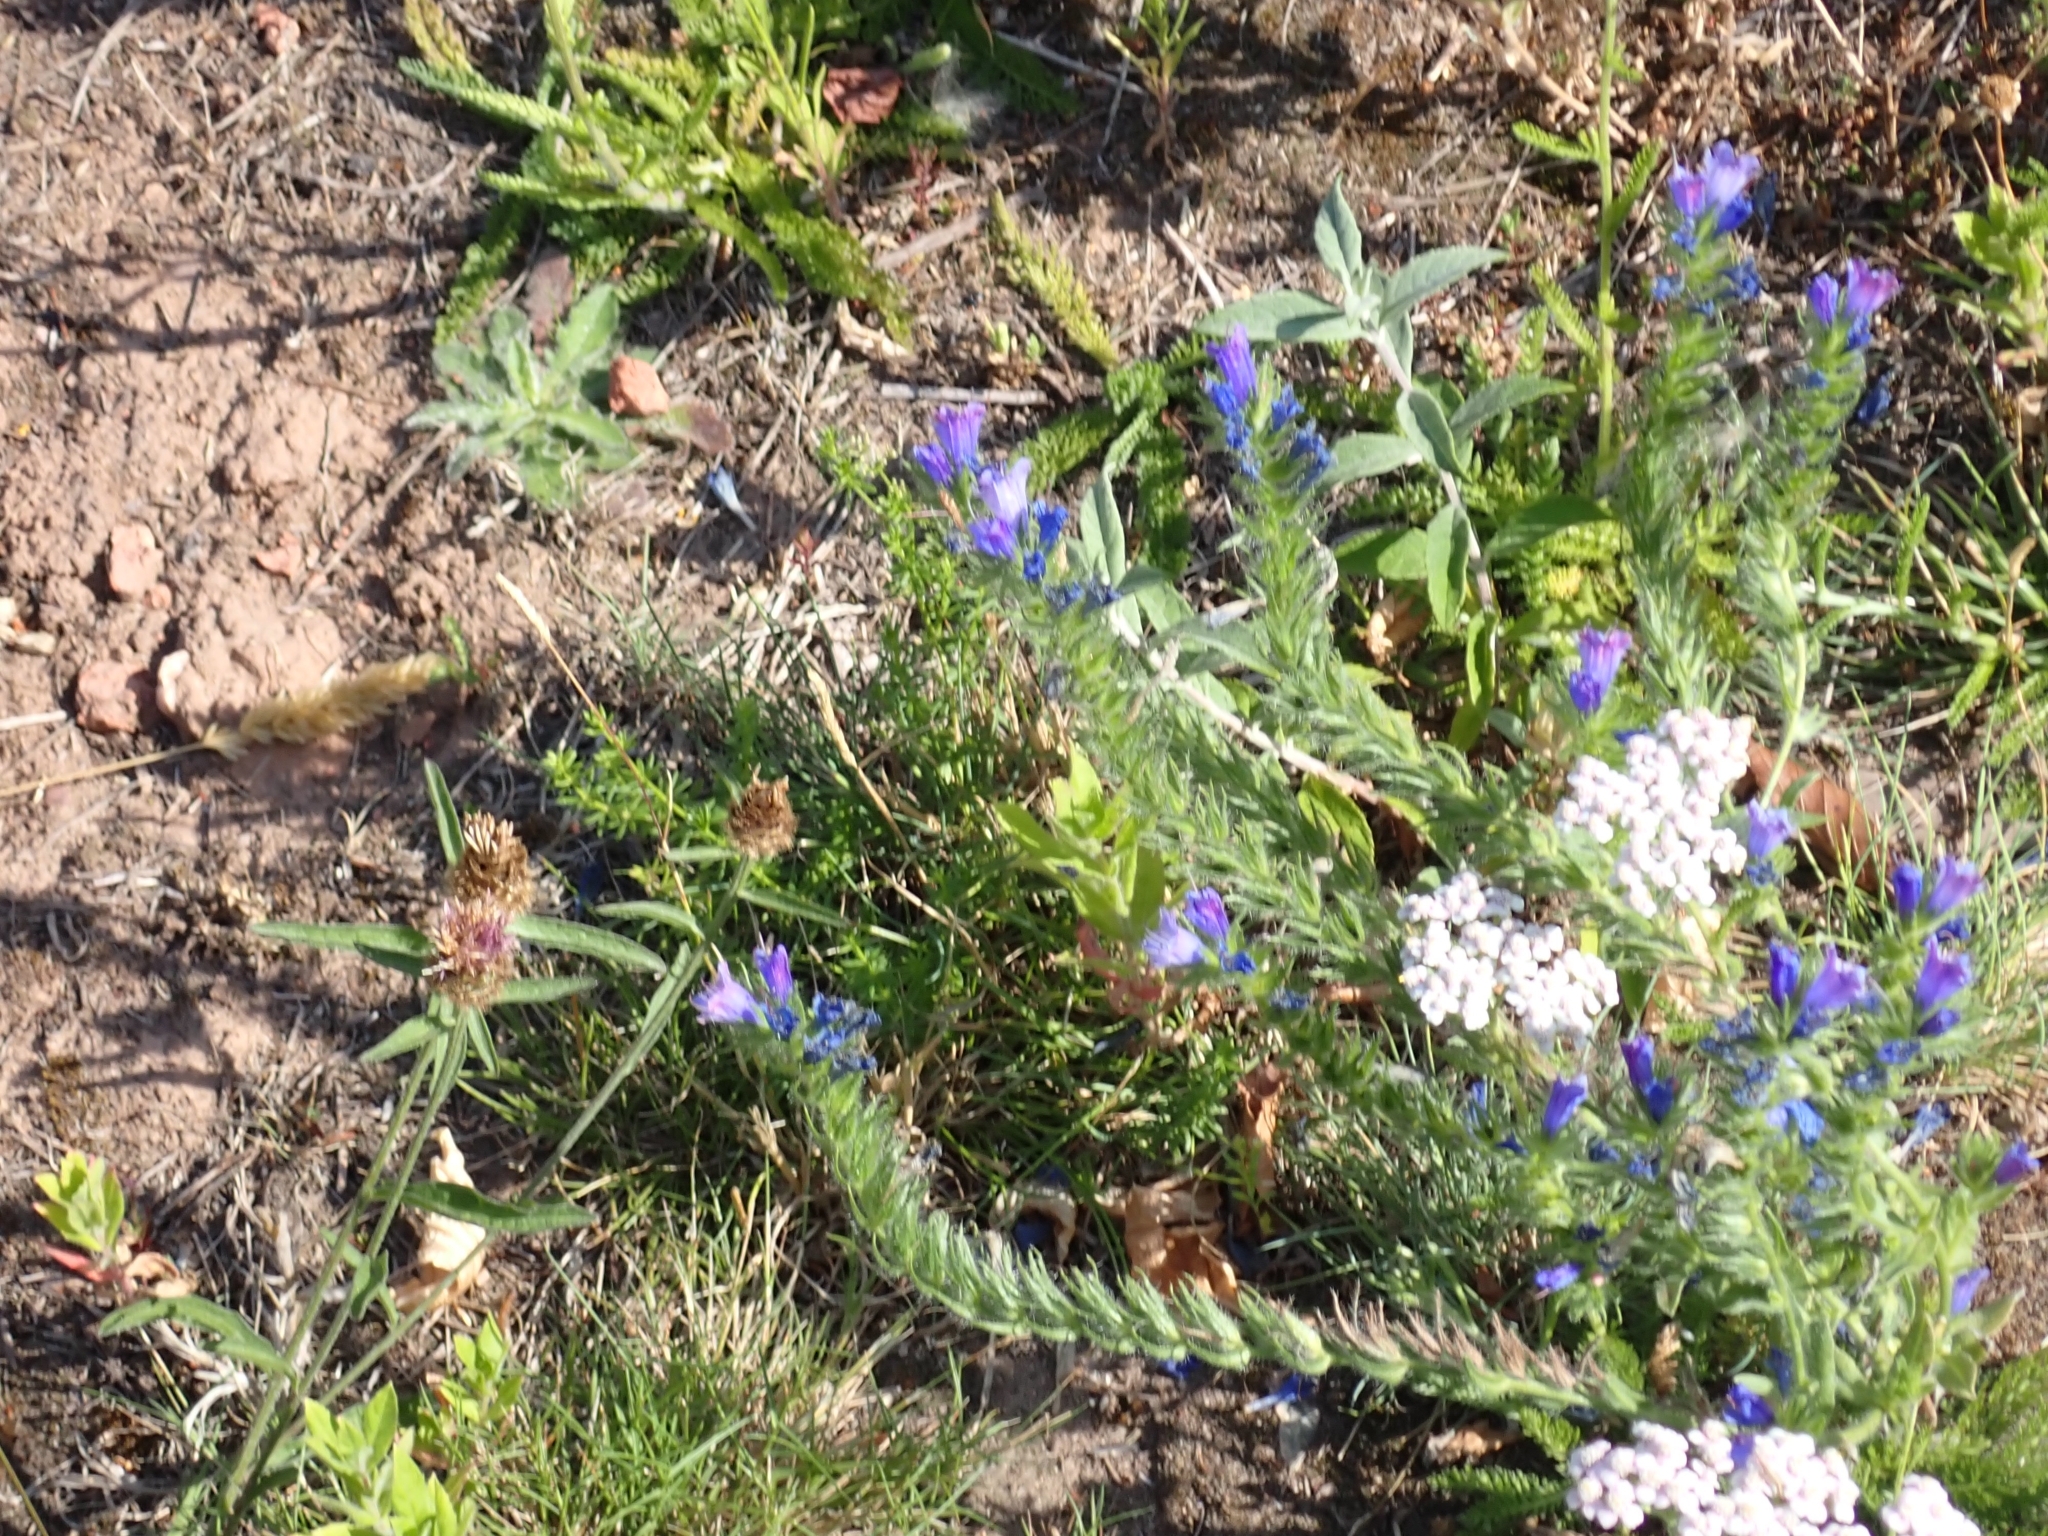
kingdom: Plantae
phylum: Tracheophyta
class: Magnoliopsida
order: Boraginales
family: Boraginaceae
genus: Echium
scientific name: Echium vulgare
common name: Common viper's bugloss
